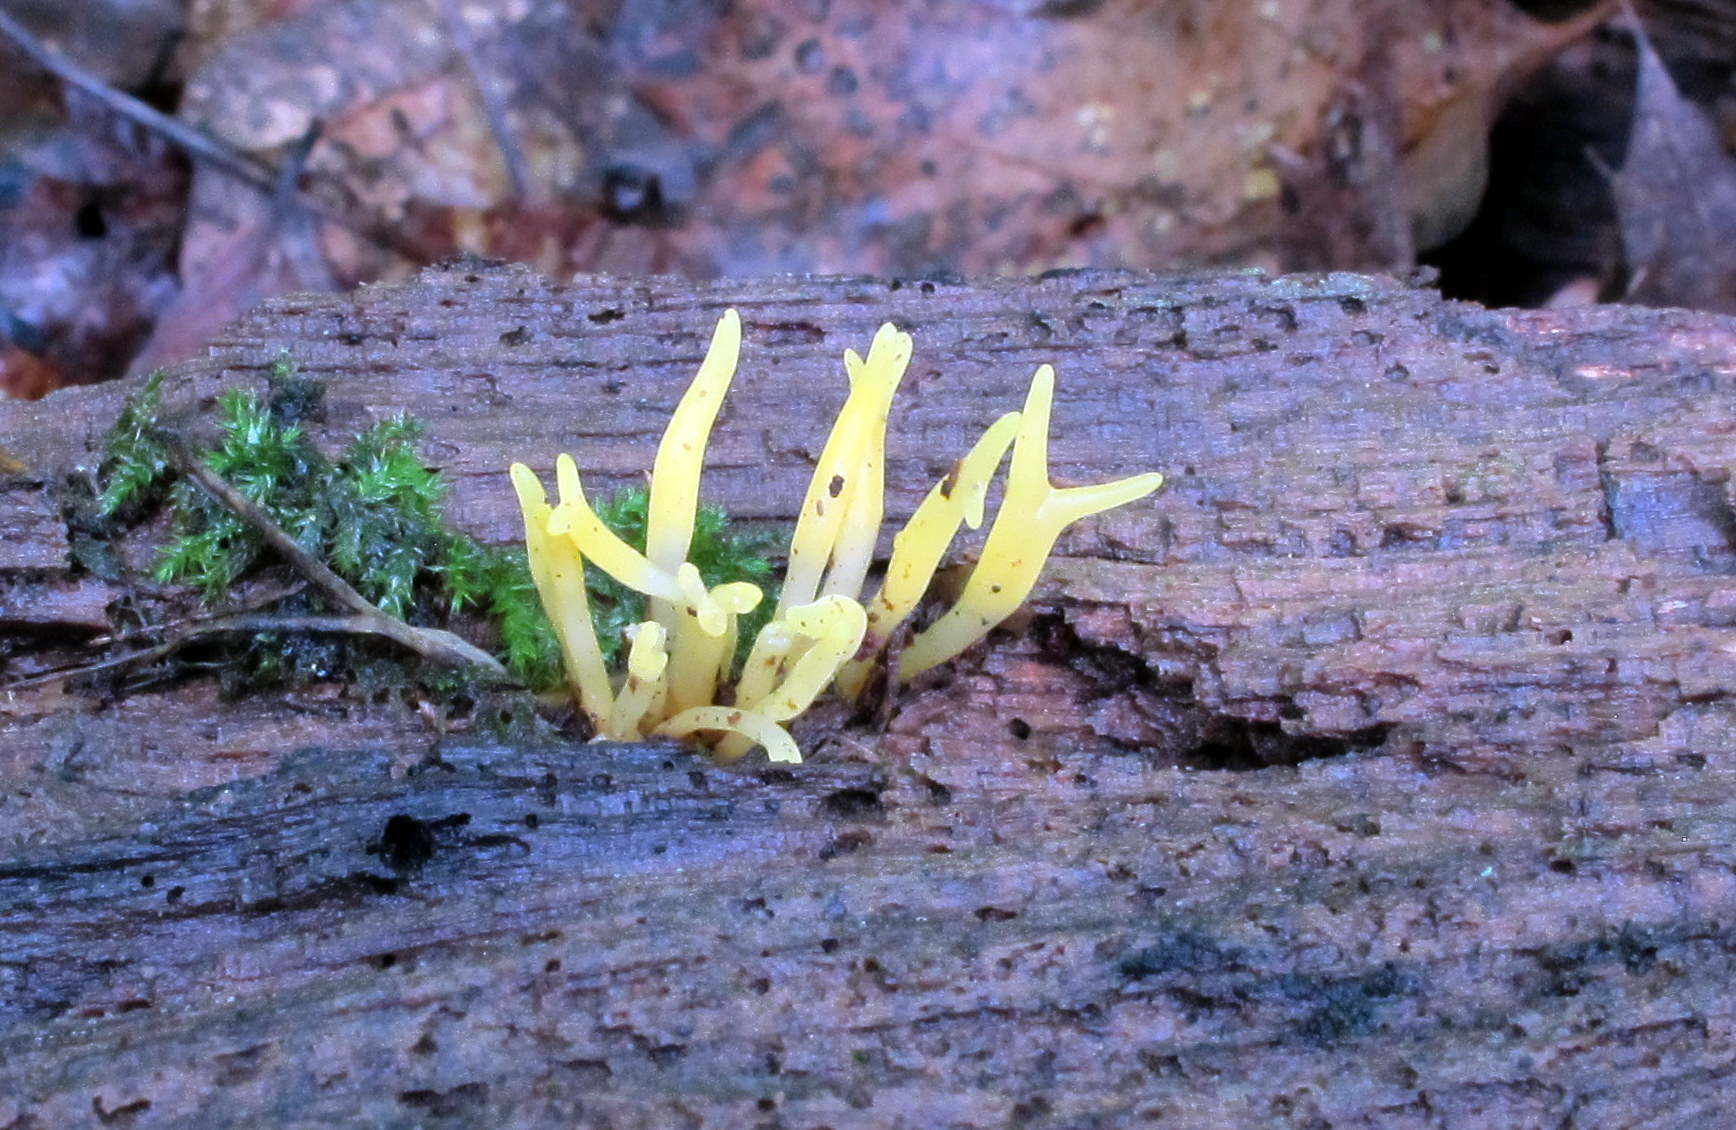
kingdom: Fungi
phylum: Basidiomycota
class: Dacrymycetes
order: Dacrymycetales
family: Dacrymycetaceae
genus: Calocera
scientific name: Calocera cornea
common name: Small stagshorn
